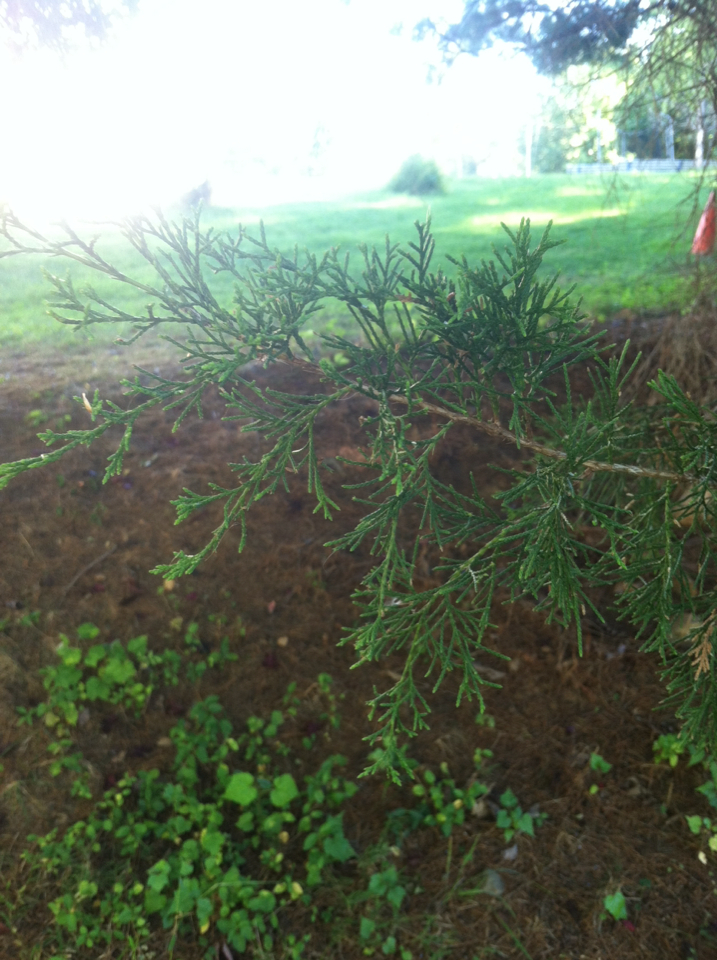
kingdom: Plantae
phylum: Tracheophyta
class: Pinopsida
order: Pinales
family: Cupressaceae
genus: Juniperus
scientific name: Juniperus virginiana
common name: Red juniper
